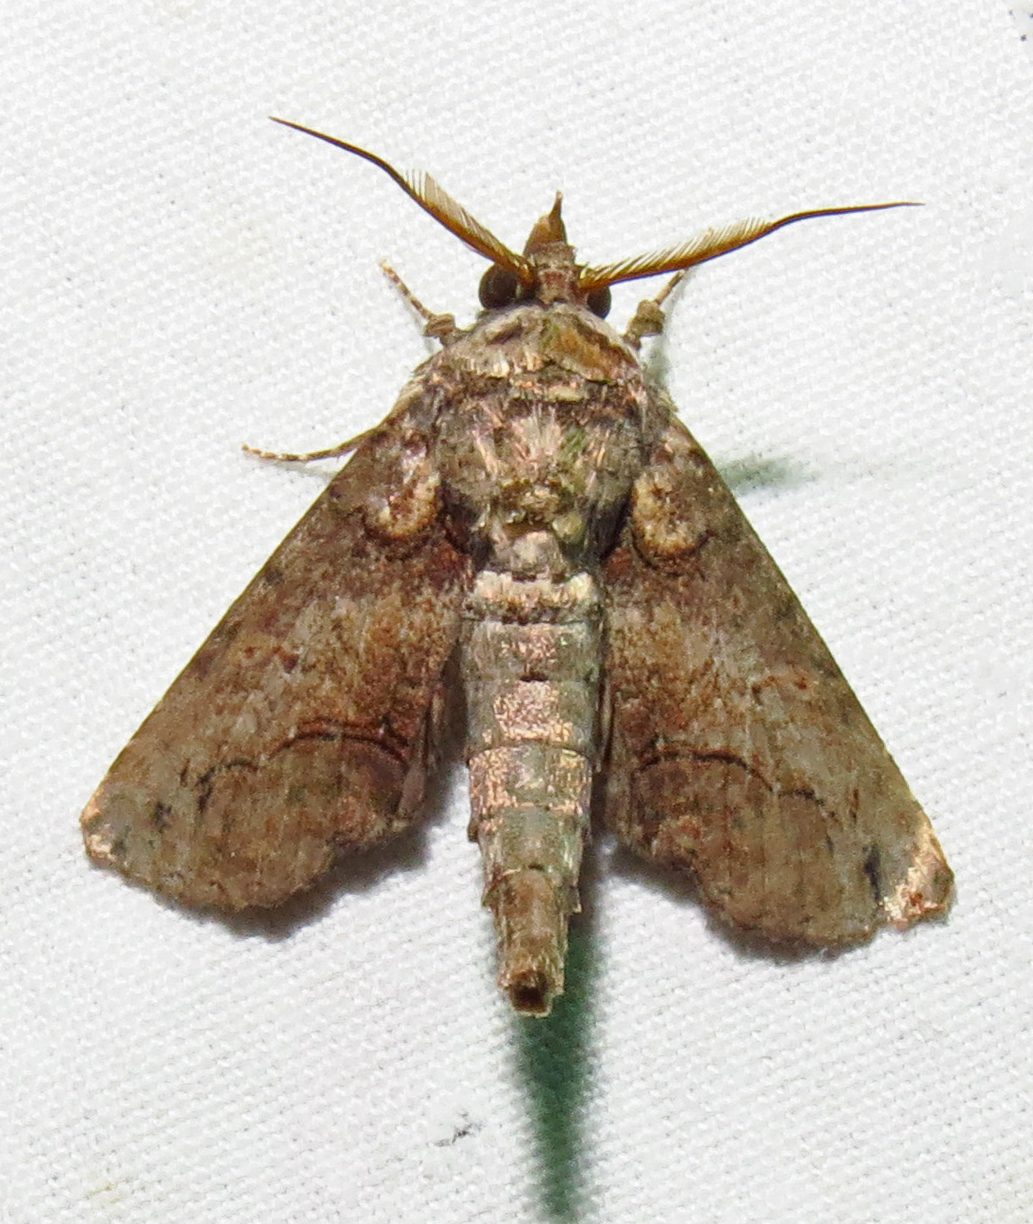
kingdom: Animalia
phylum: Arthropoda
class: Insecta
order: Lepidoptera
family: Euteliidae
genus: Paectes
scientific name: Paectes abrostoloides
